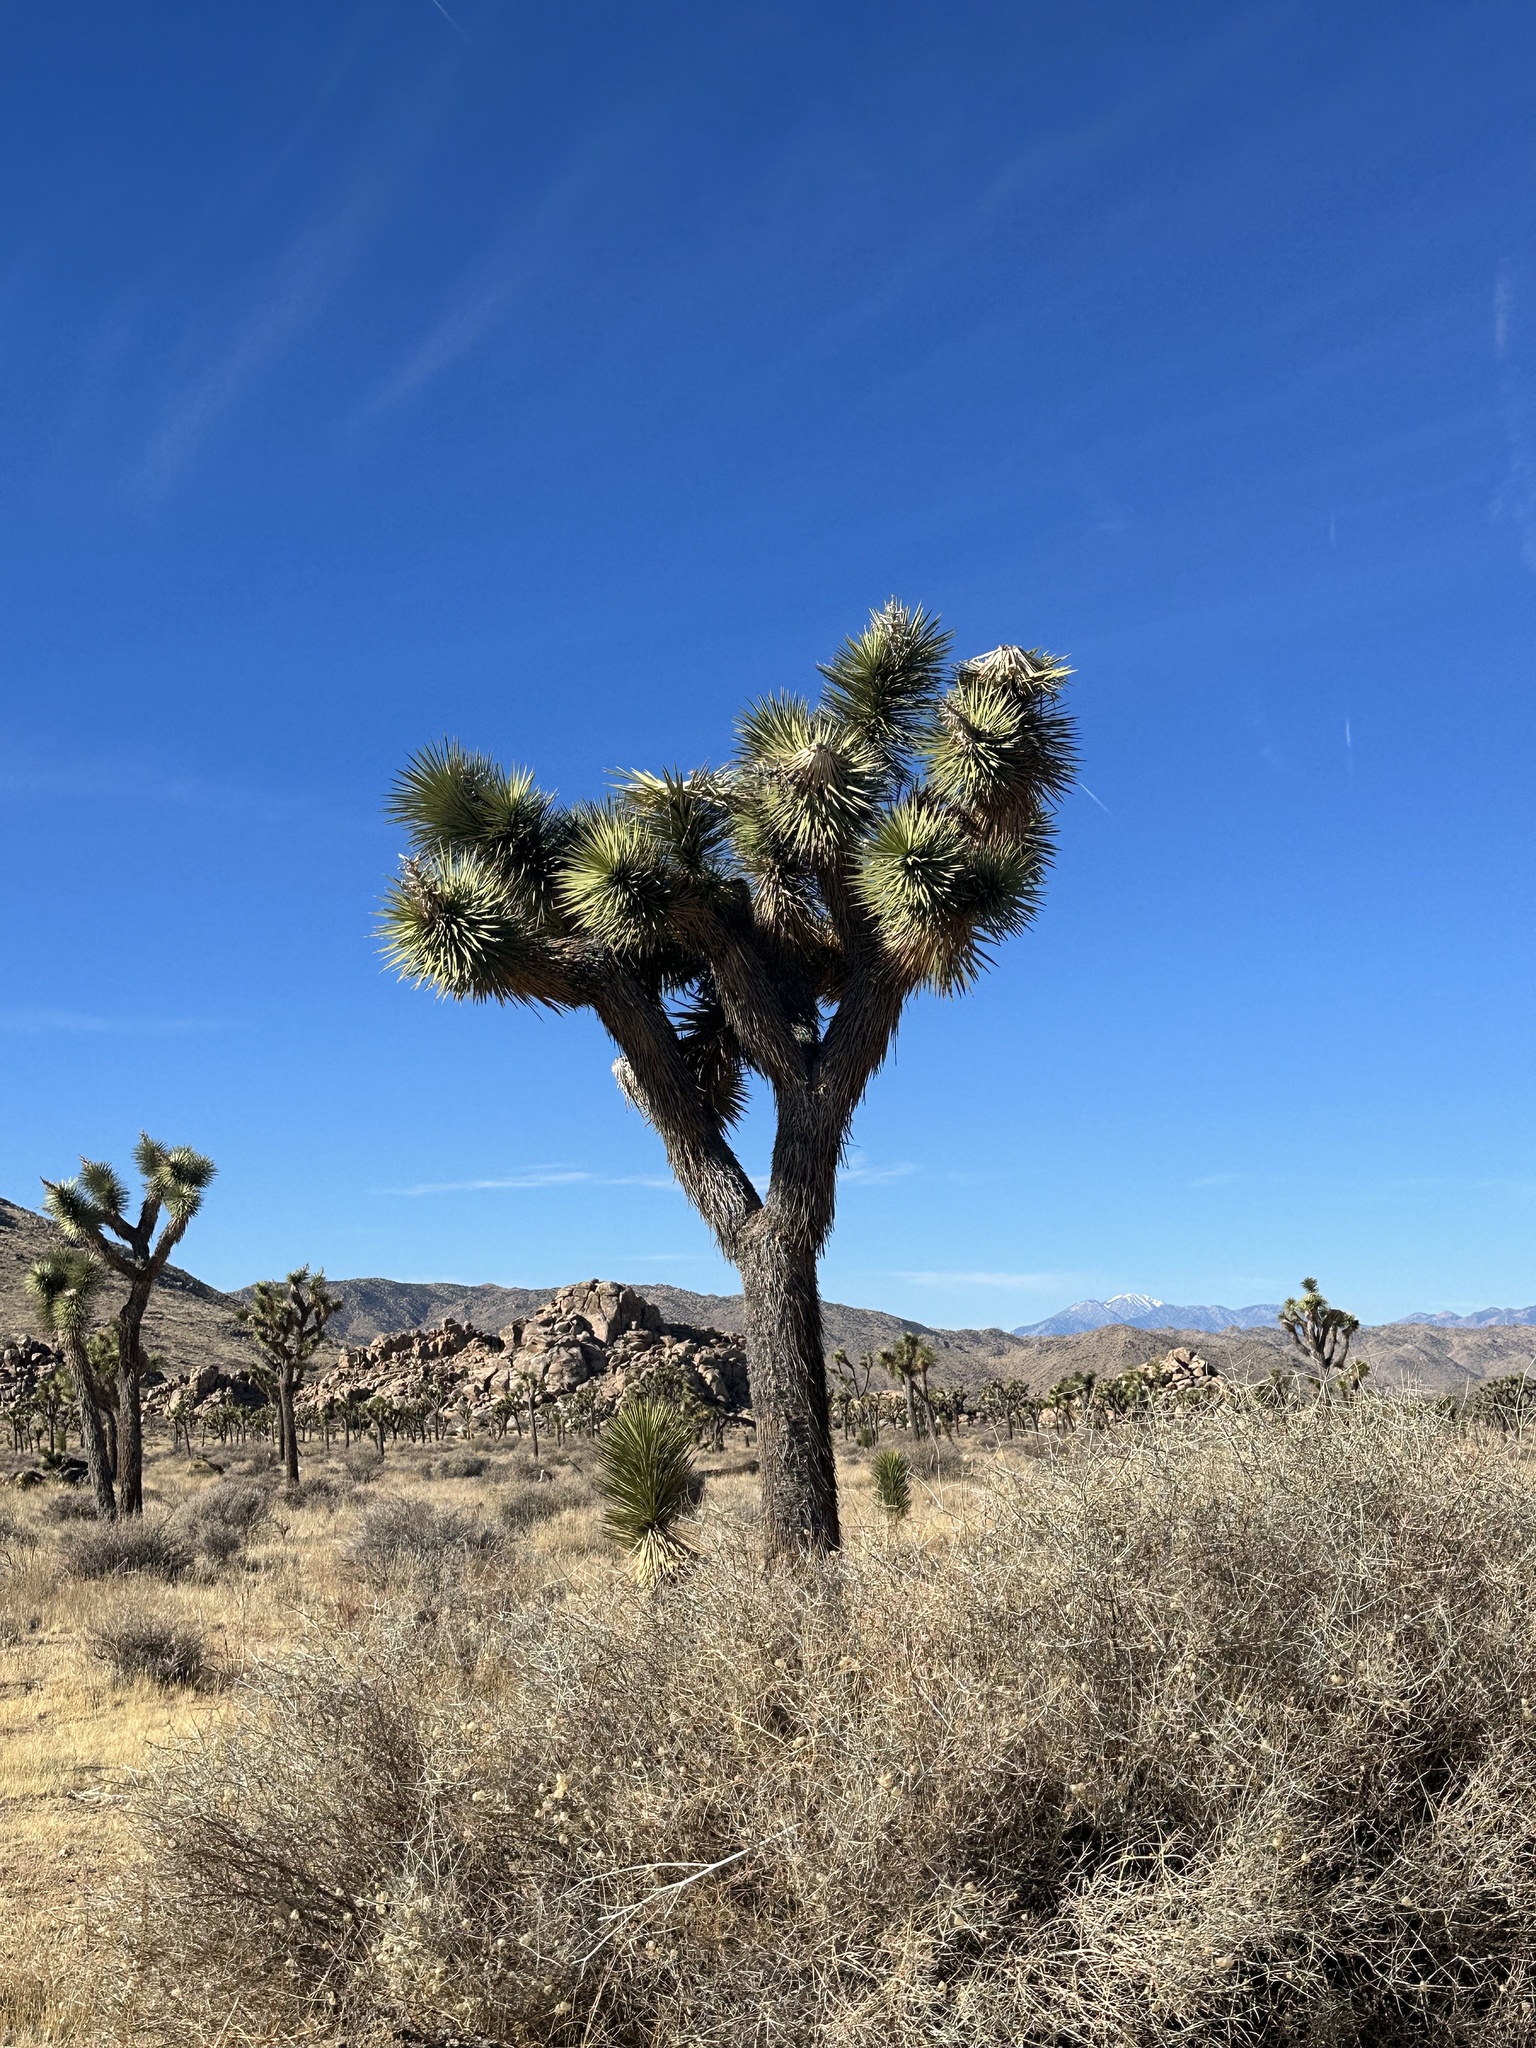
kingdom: Plantae
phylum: Tracheophyta
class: Liliopsida
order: Asparagales
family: Asparagaceae
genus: Yucca
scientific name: Yucca brevifolia
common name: Joshua tree
